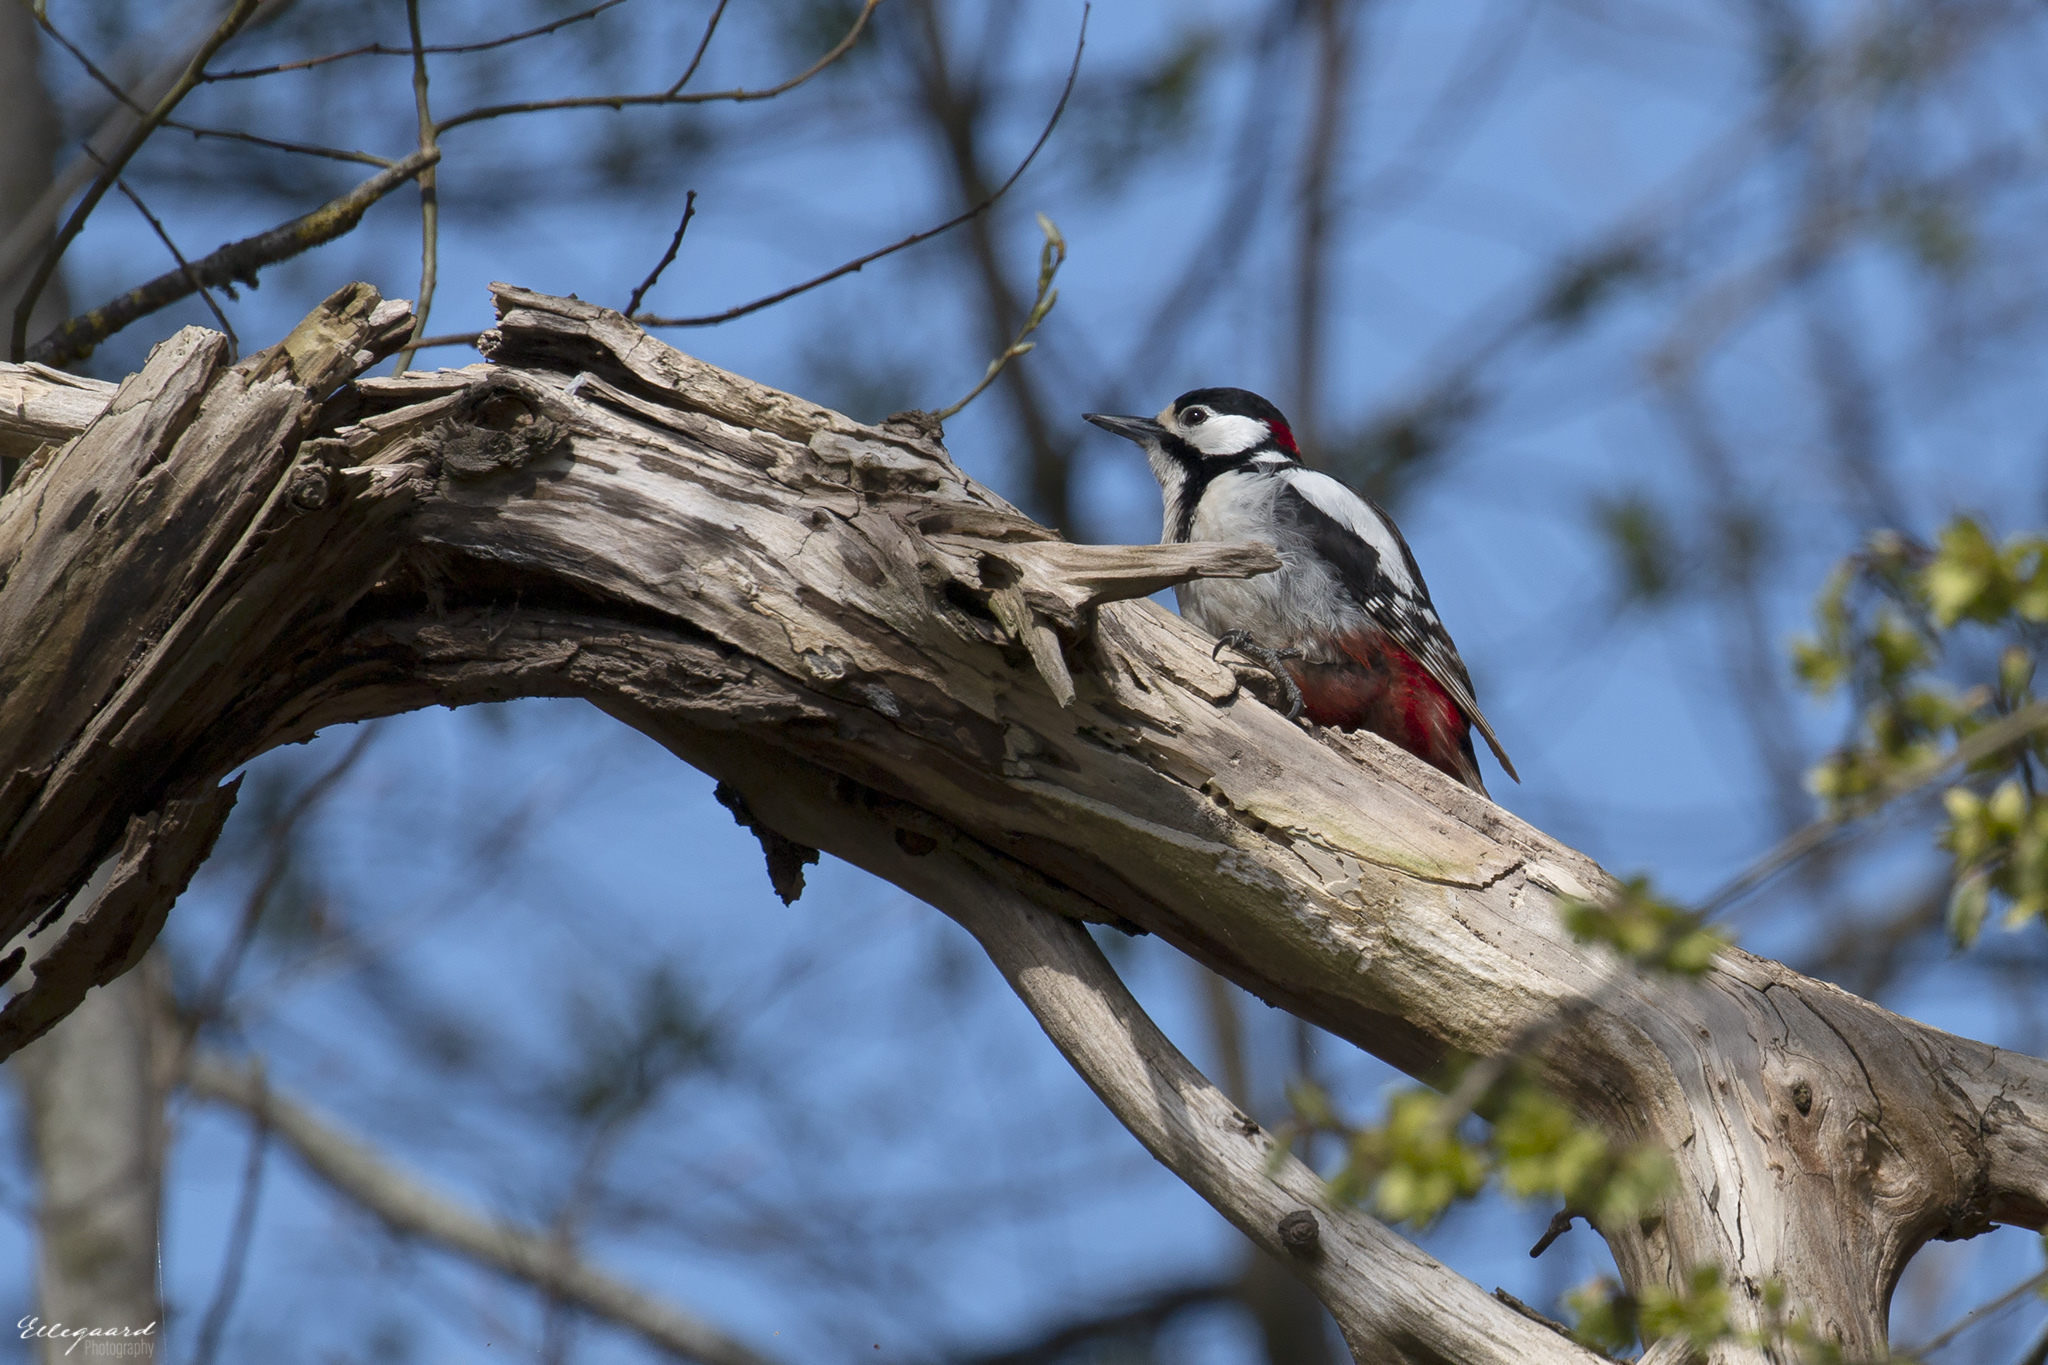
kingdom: Animalia
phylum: Chordata
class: Aves
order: Piciformes
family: Picidae
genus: Dendrocopos
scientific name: Dendrocopos major
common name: Great spotted woodpecker
